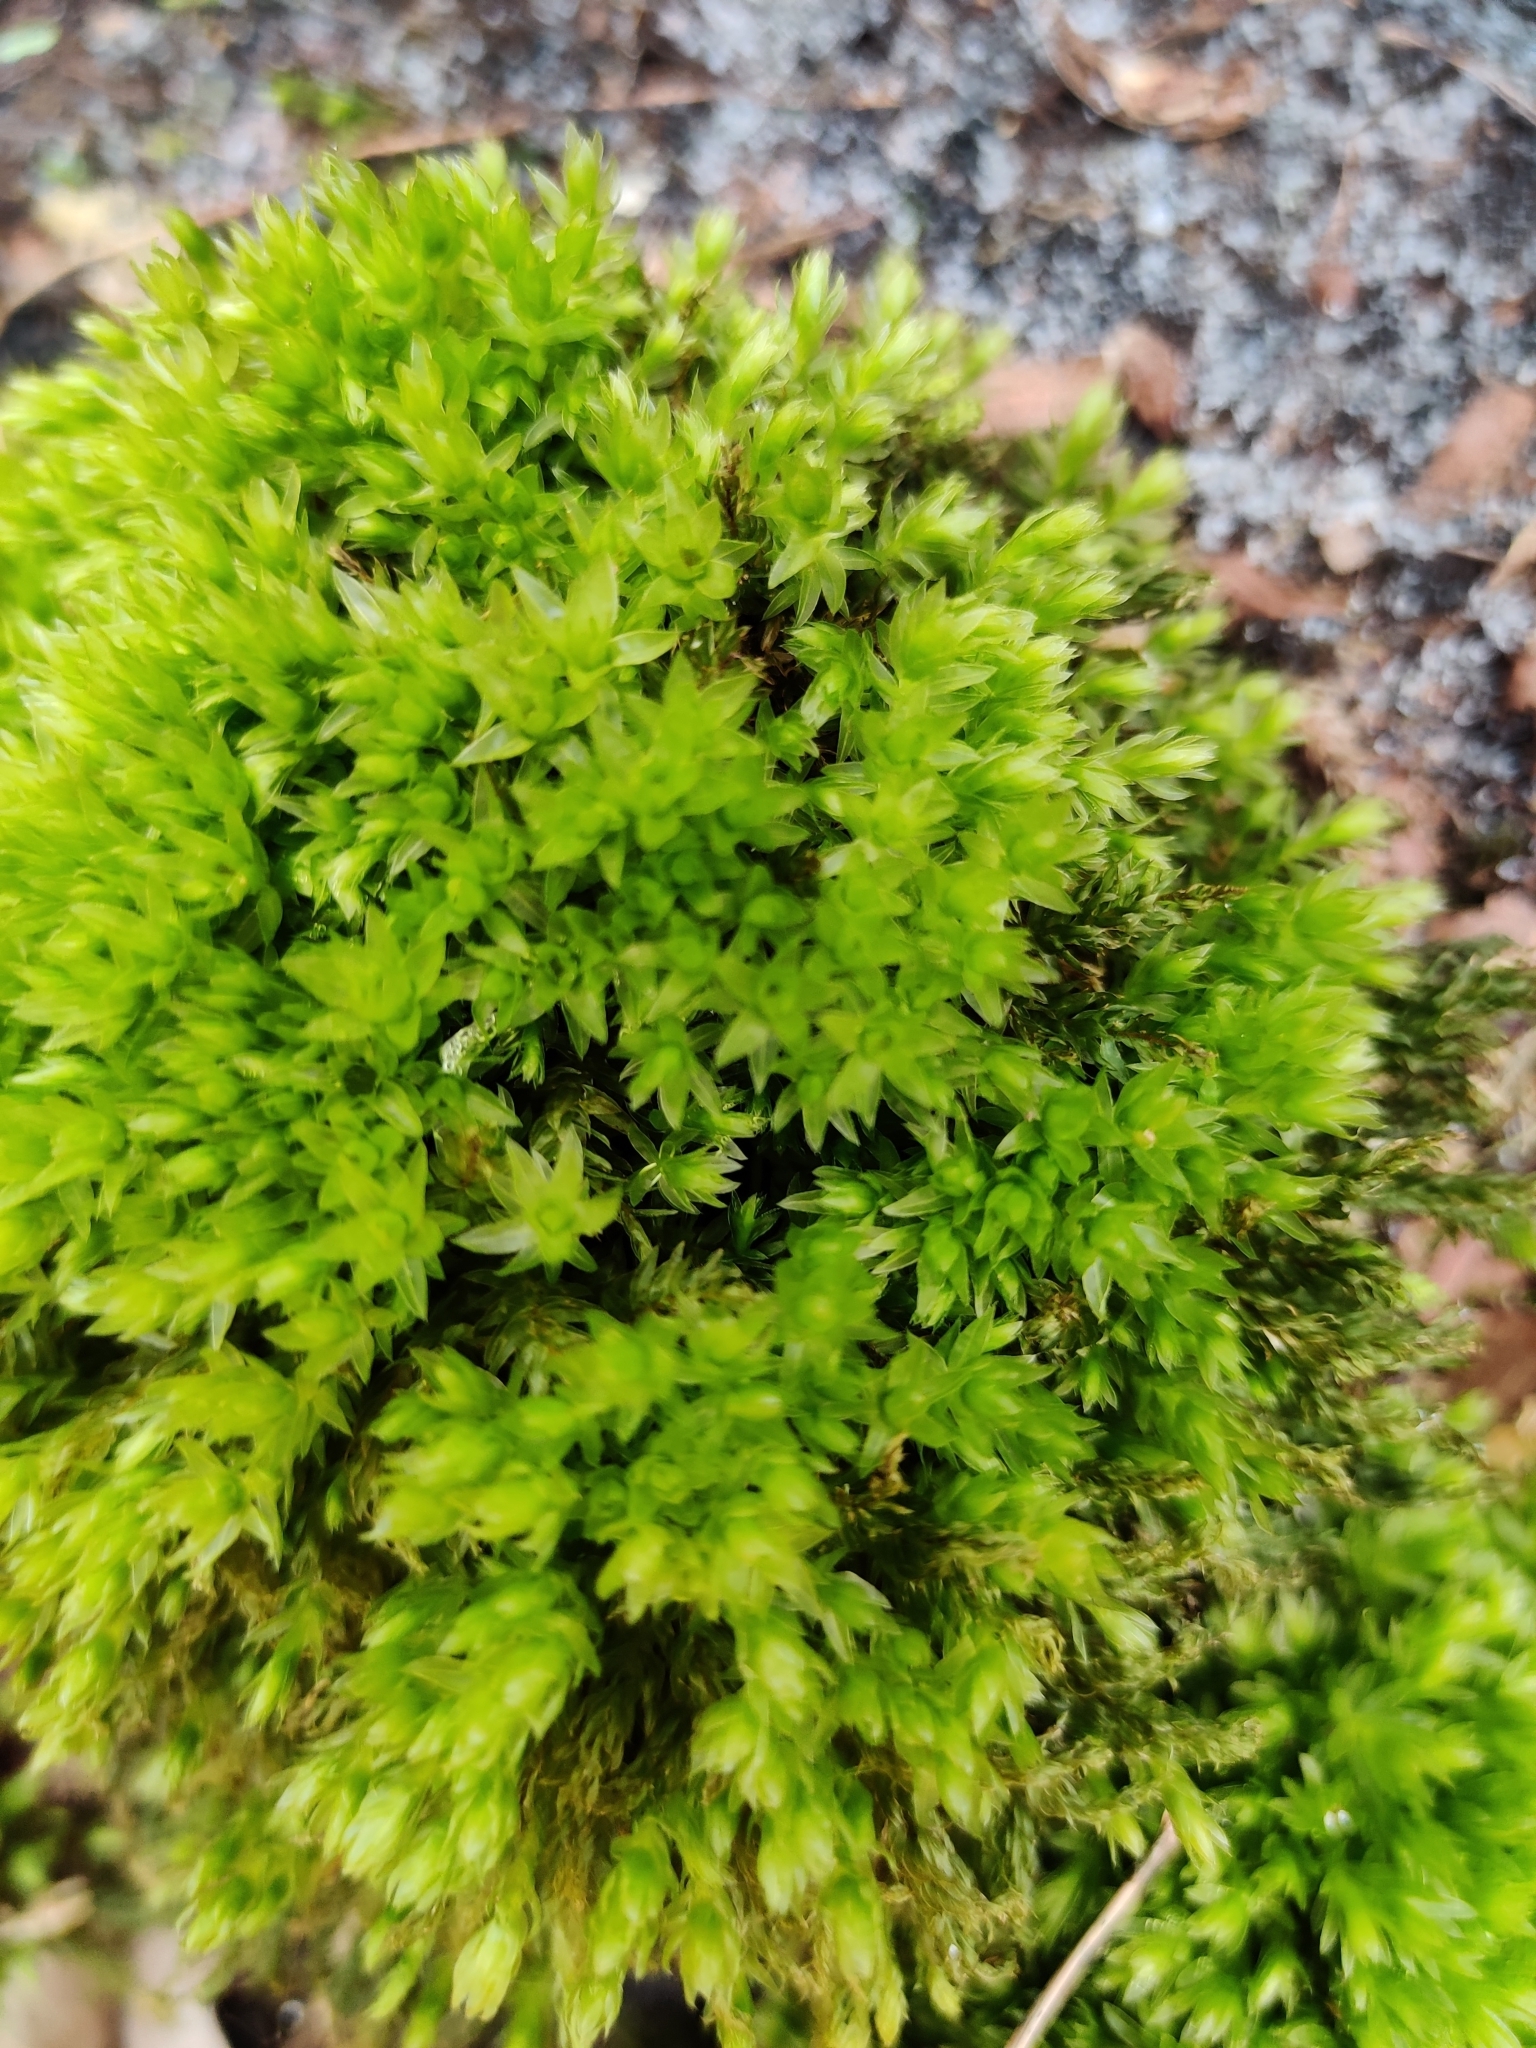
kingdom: Plantae
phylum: Bryophyta
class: Bryopsida
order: Bryales
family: Mniaceae
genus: Mnium
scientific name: Mnium hornum
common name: Swan's-neck leafy moss
